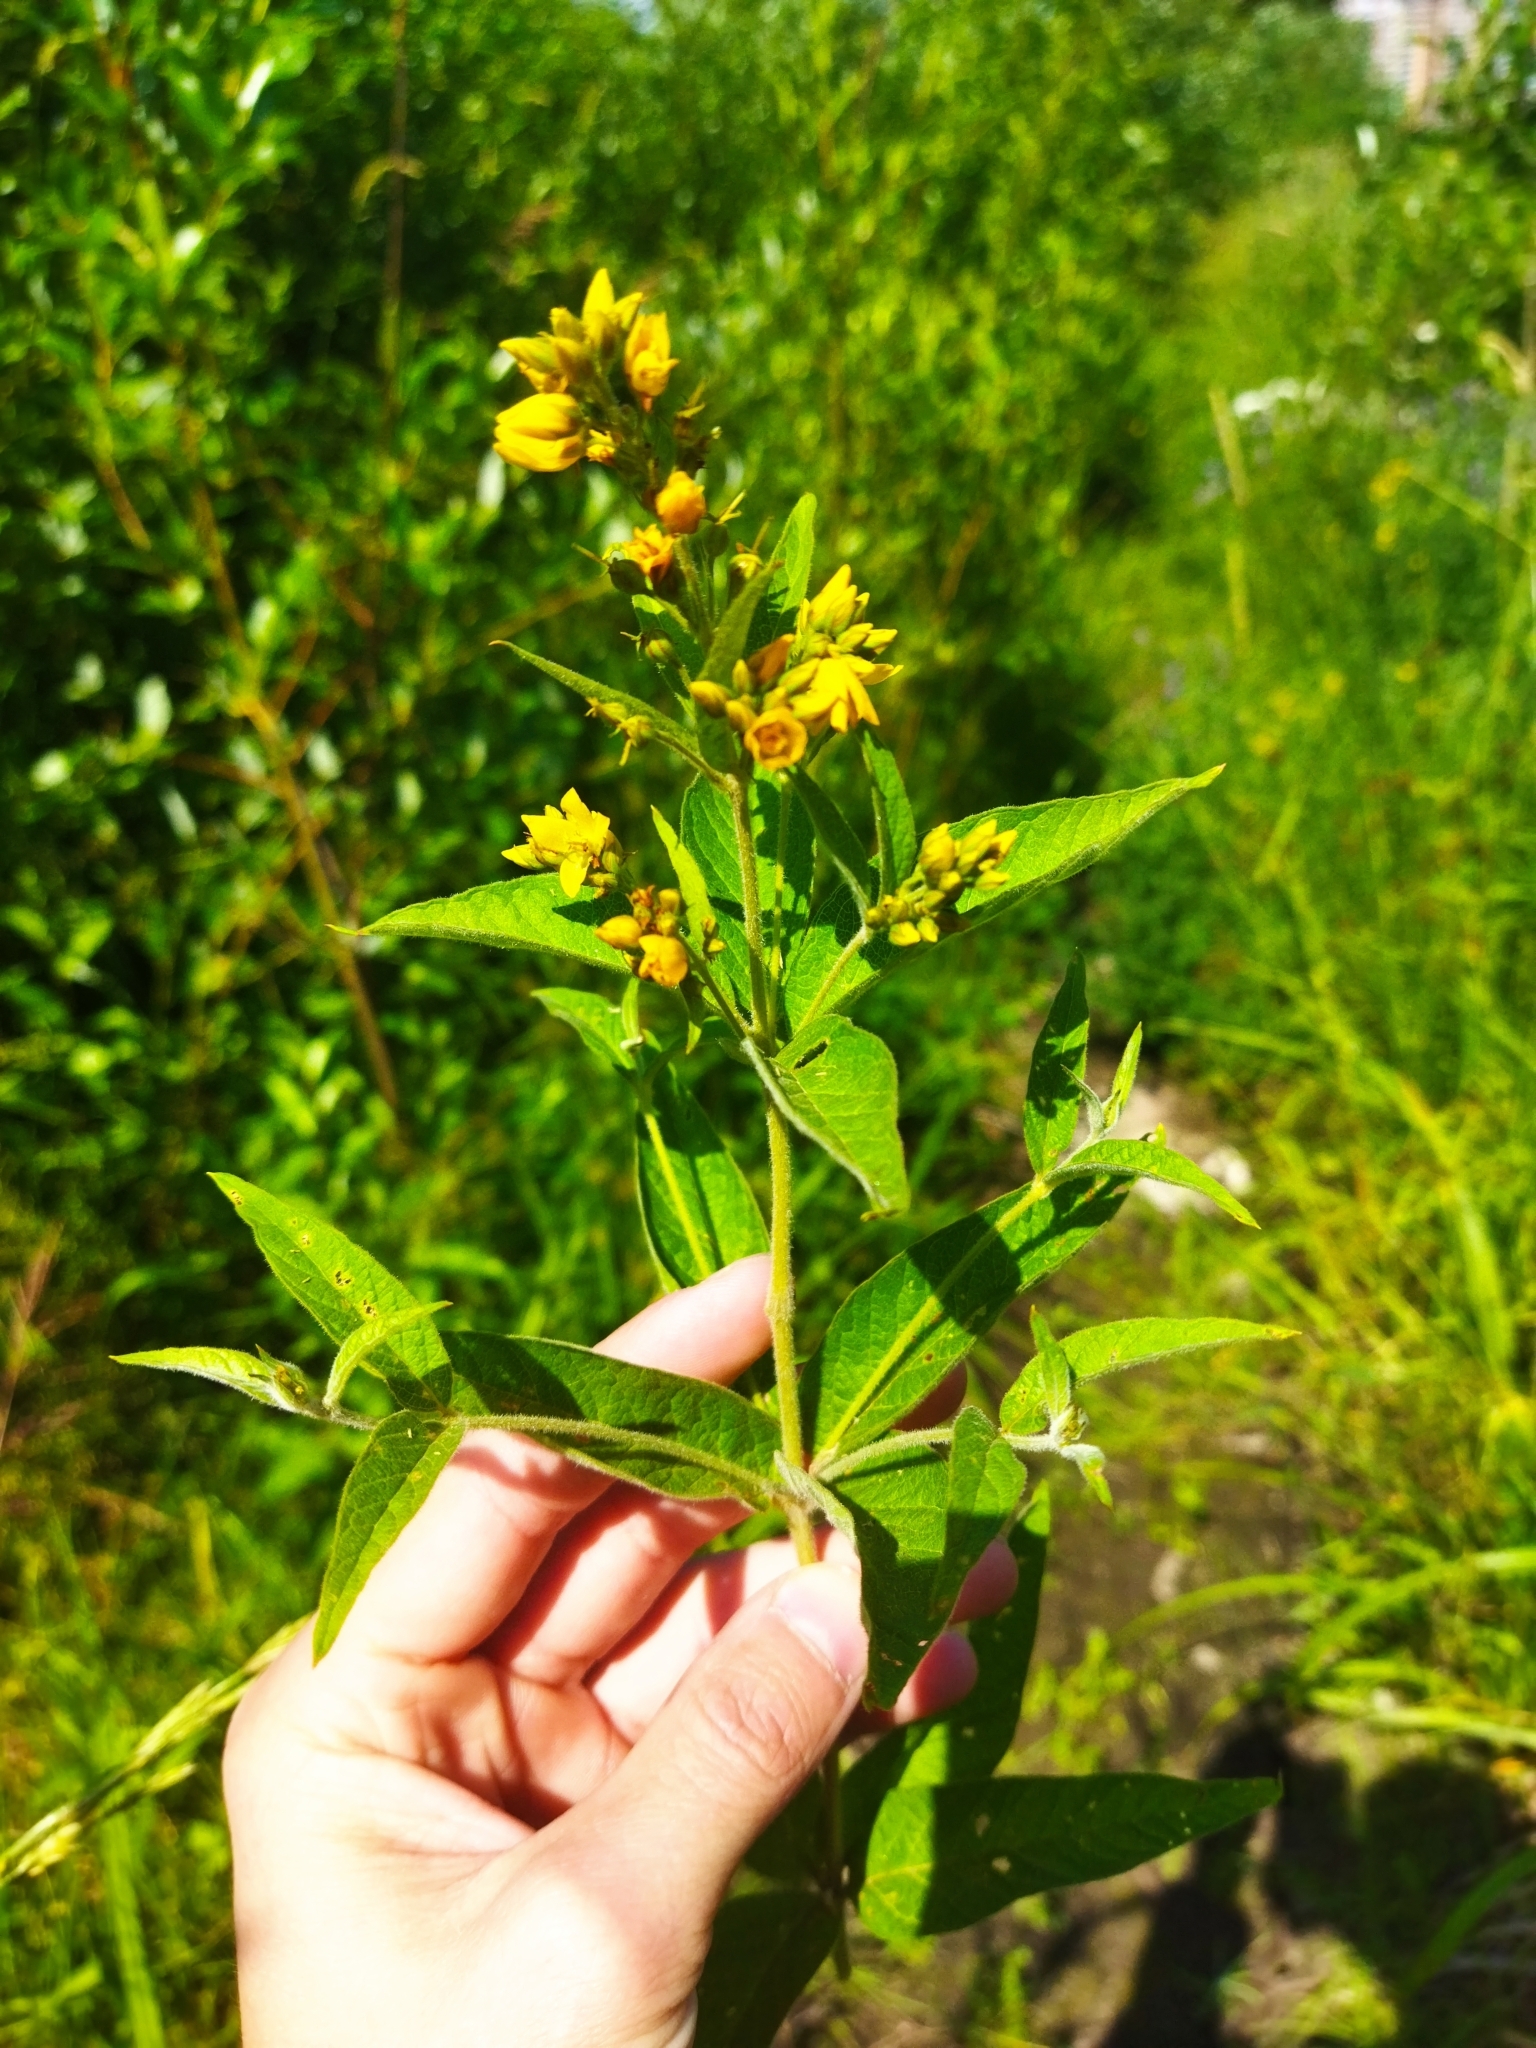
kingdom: Plantae
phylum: Tracheophyta
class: Magnoliopsida
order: Ericales
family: Primulaceae
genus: Lysimachia
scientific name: Lysimachia vulgaris
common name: Yellow loosestrife
